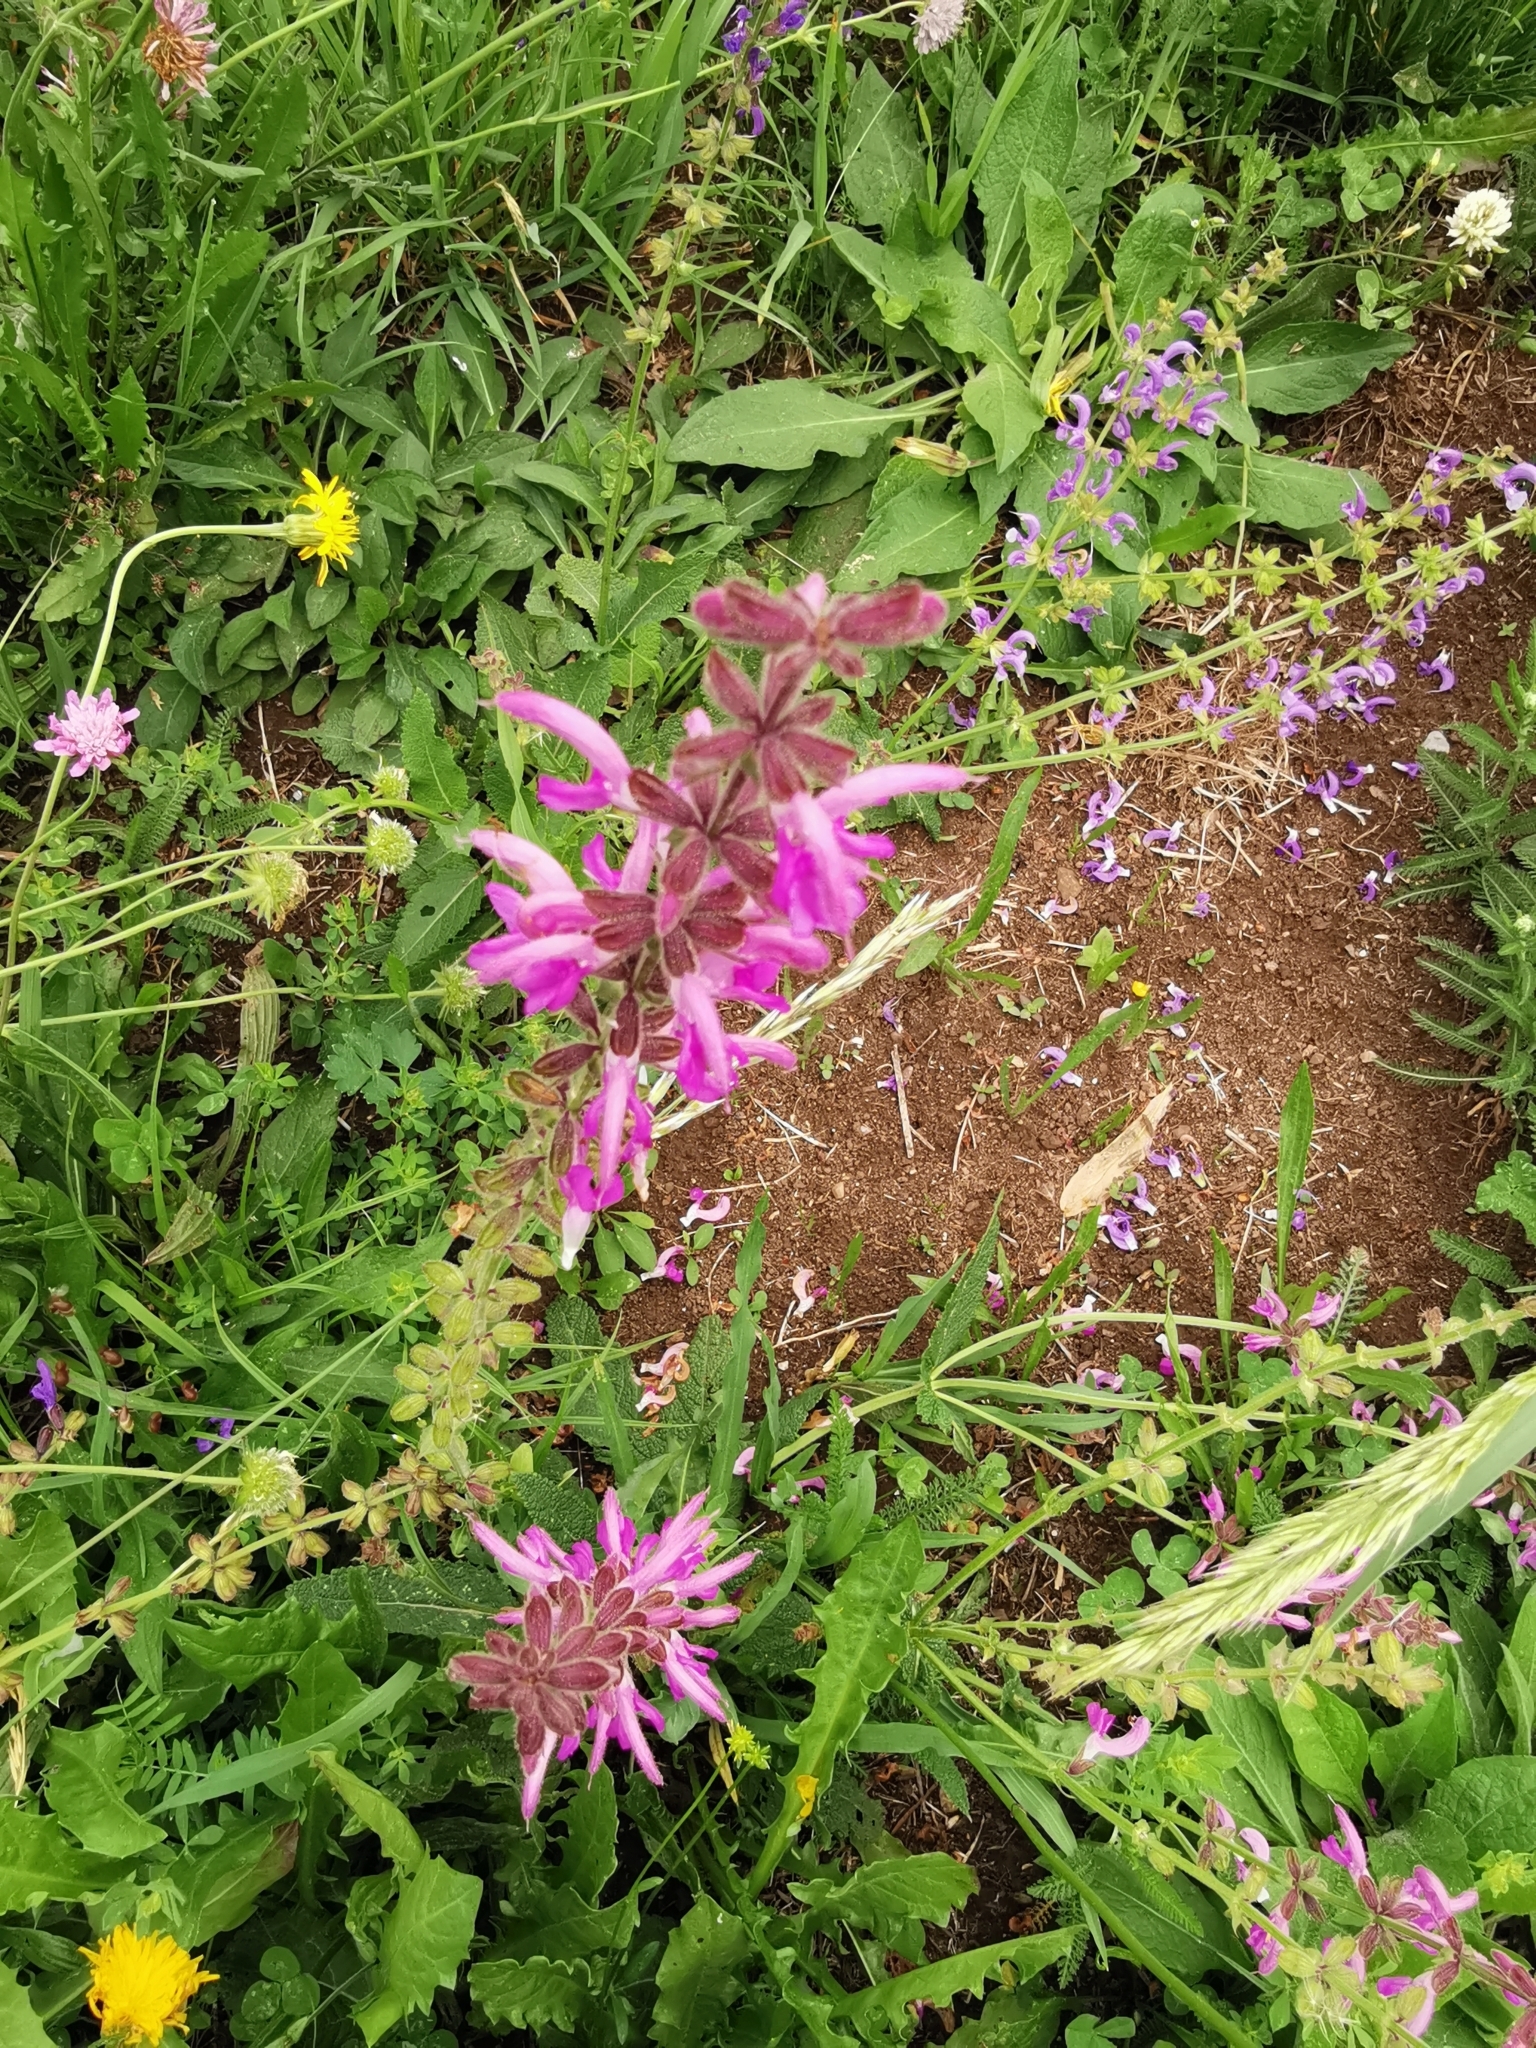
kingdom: Plantae
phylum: Tracheophyta
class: Magnoliopsida
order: Lamiales
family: Lamiaceae
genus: Salvia
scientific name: Salvia pratensis
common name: Meadow sage
